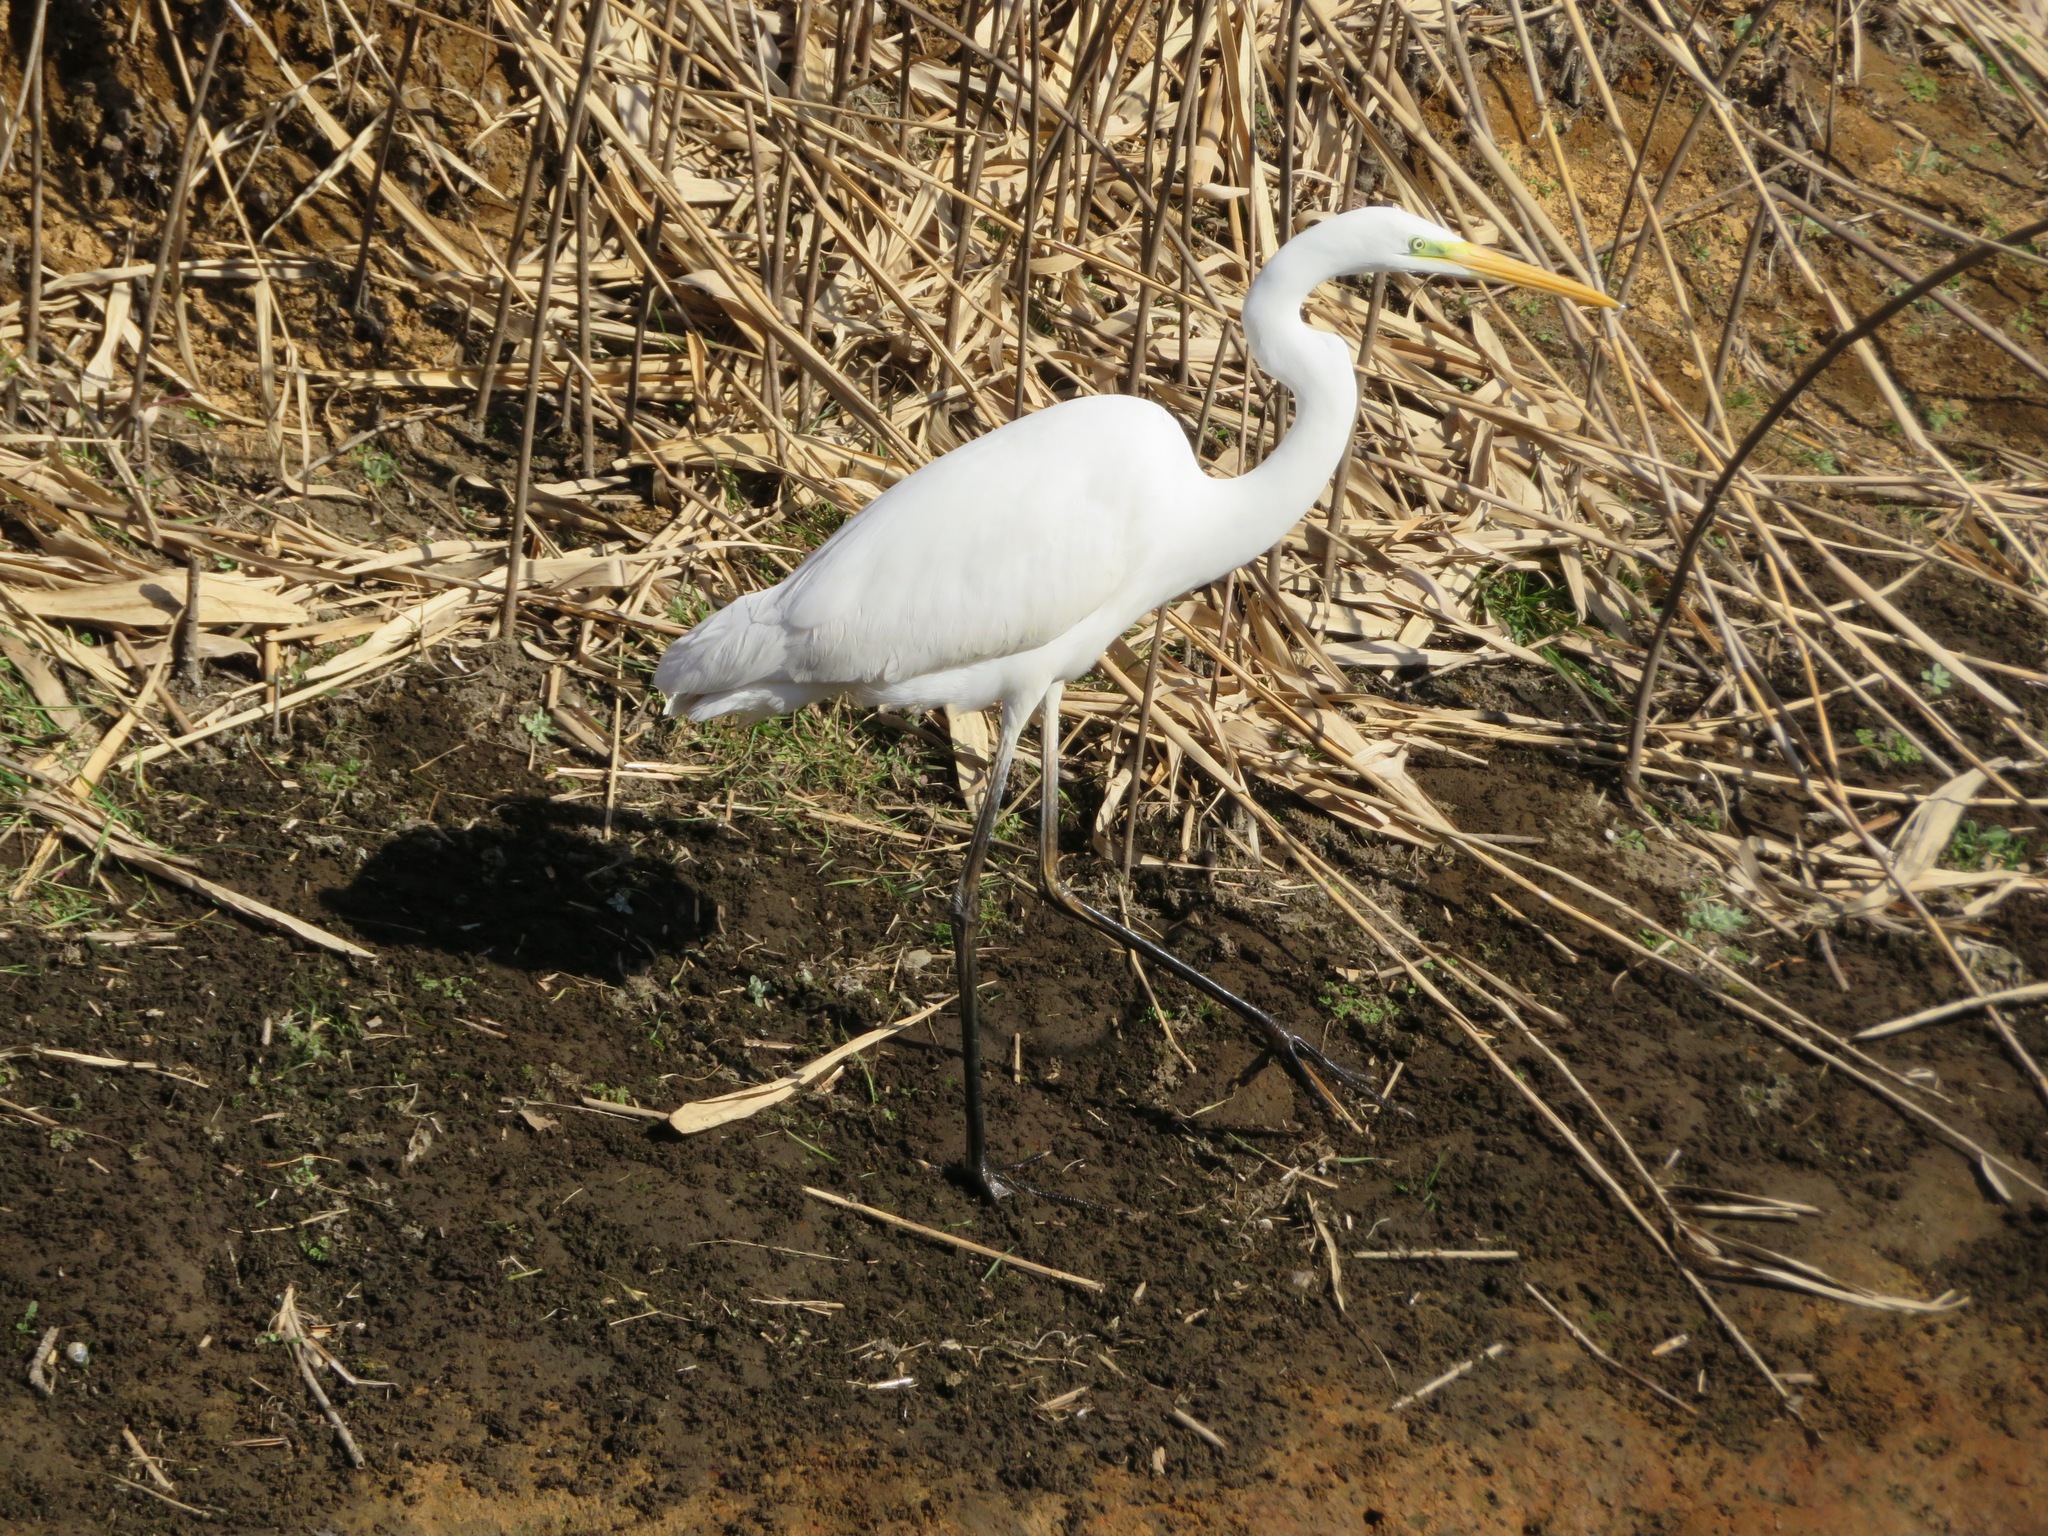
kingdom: Animalia
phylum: Chordata
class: Aves
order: Pelecaniformes
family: Ardeidae
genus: Ardea
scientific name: Ardea alba
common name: Great egret
